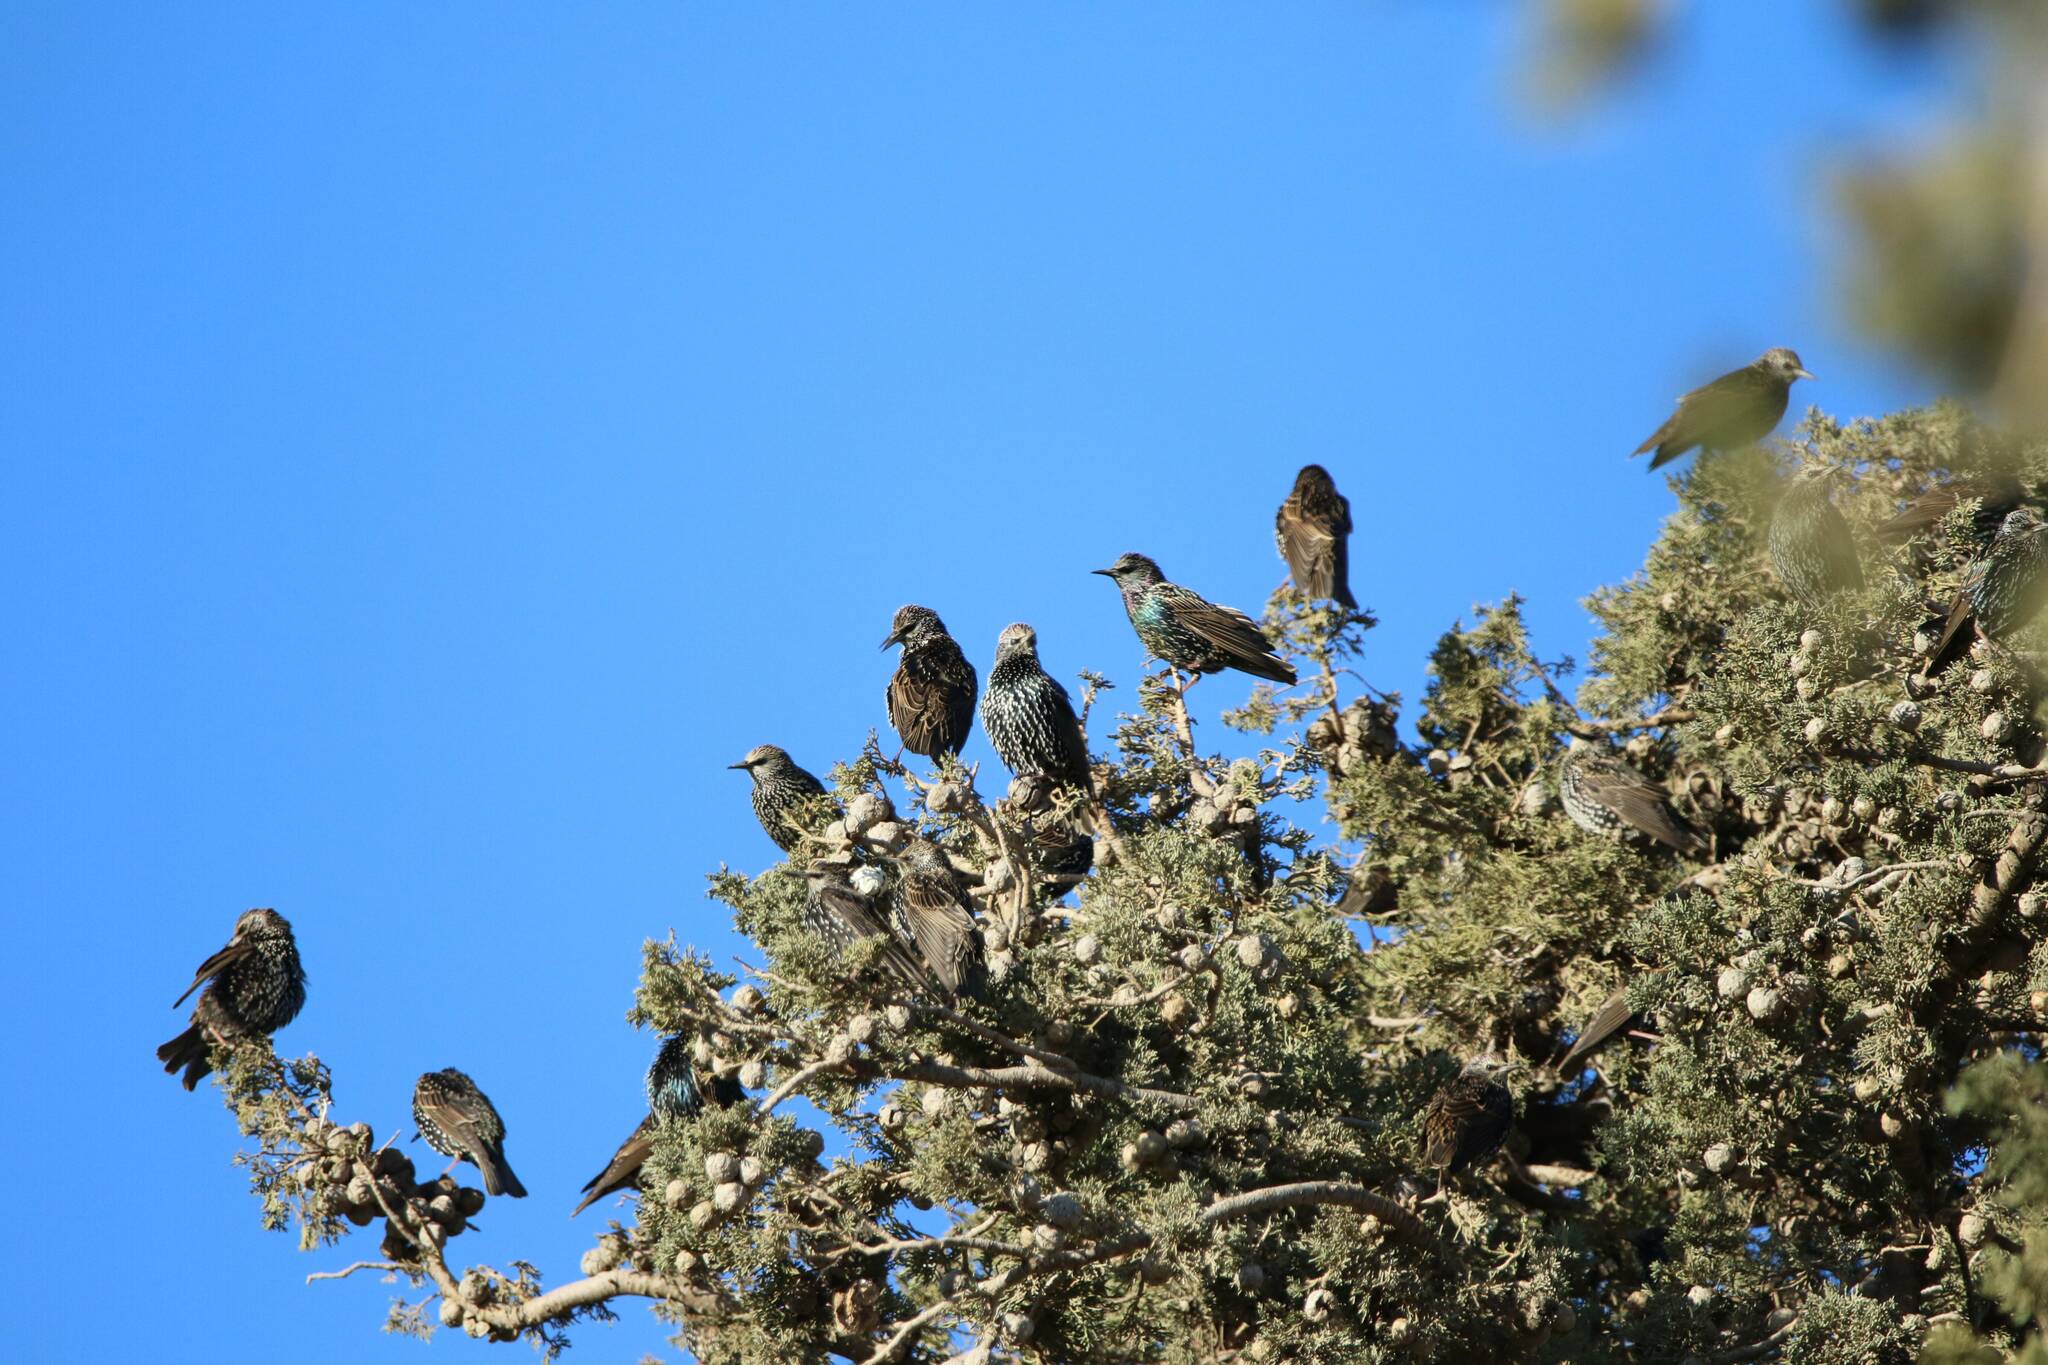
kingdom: Animalia
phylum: Chordata
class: Aves
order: Passeriformes
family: Sturnidae
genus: Sturnus
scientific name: Sturnus vulgaris
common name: Common starling
